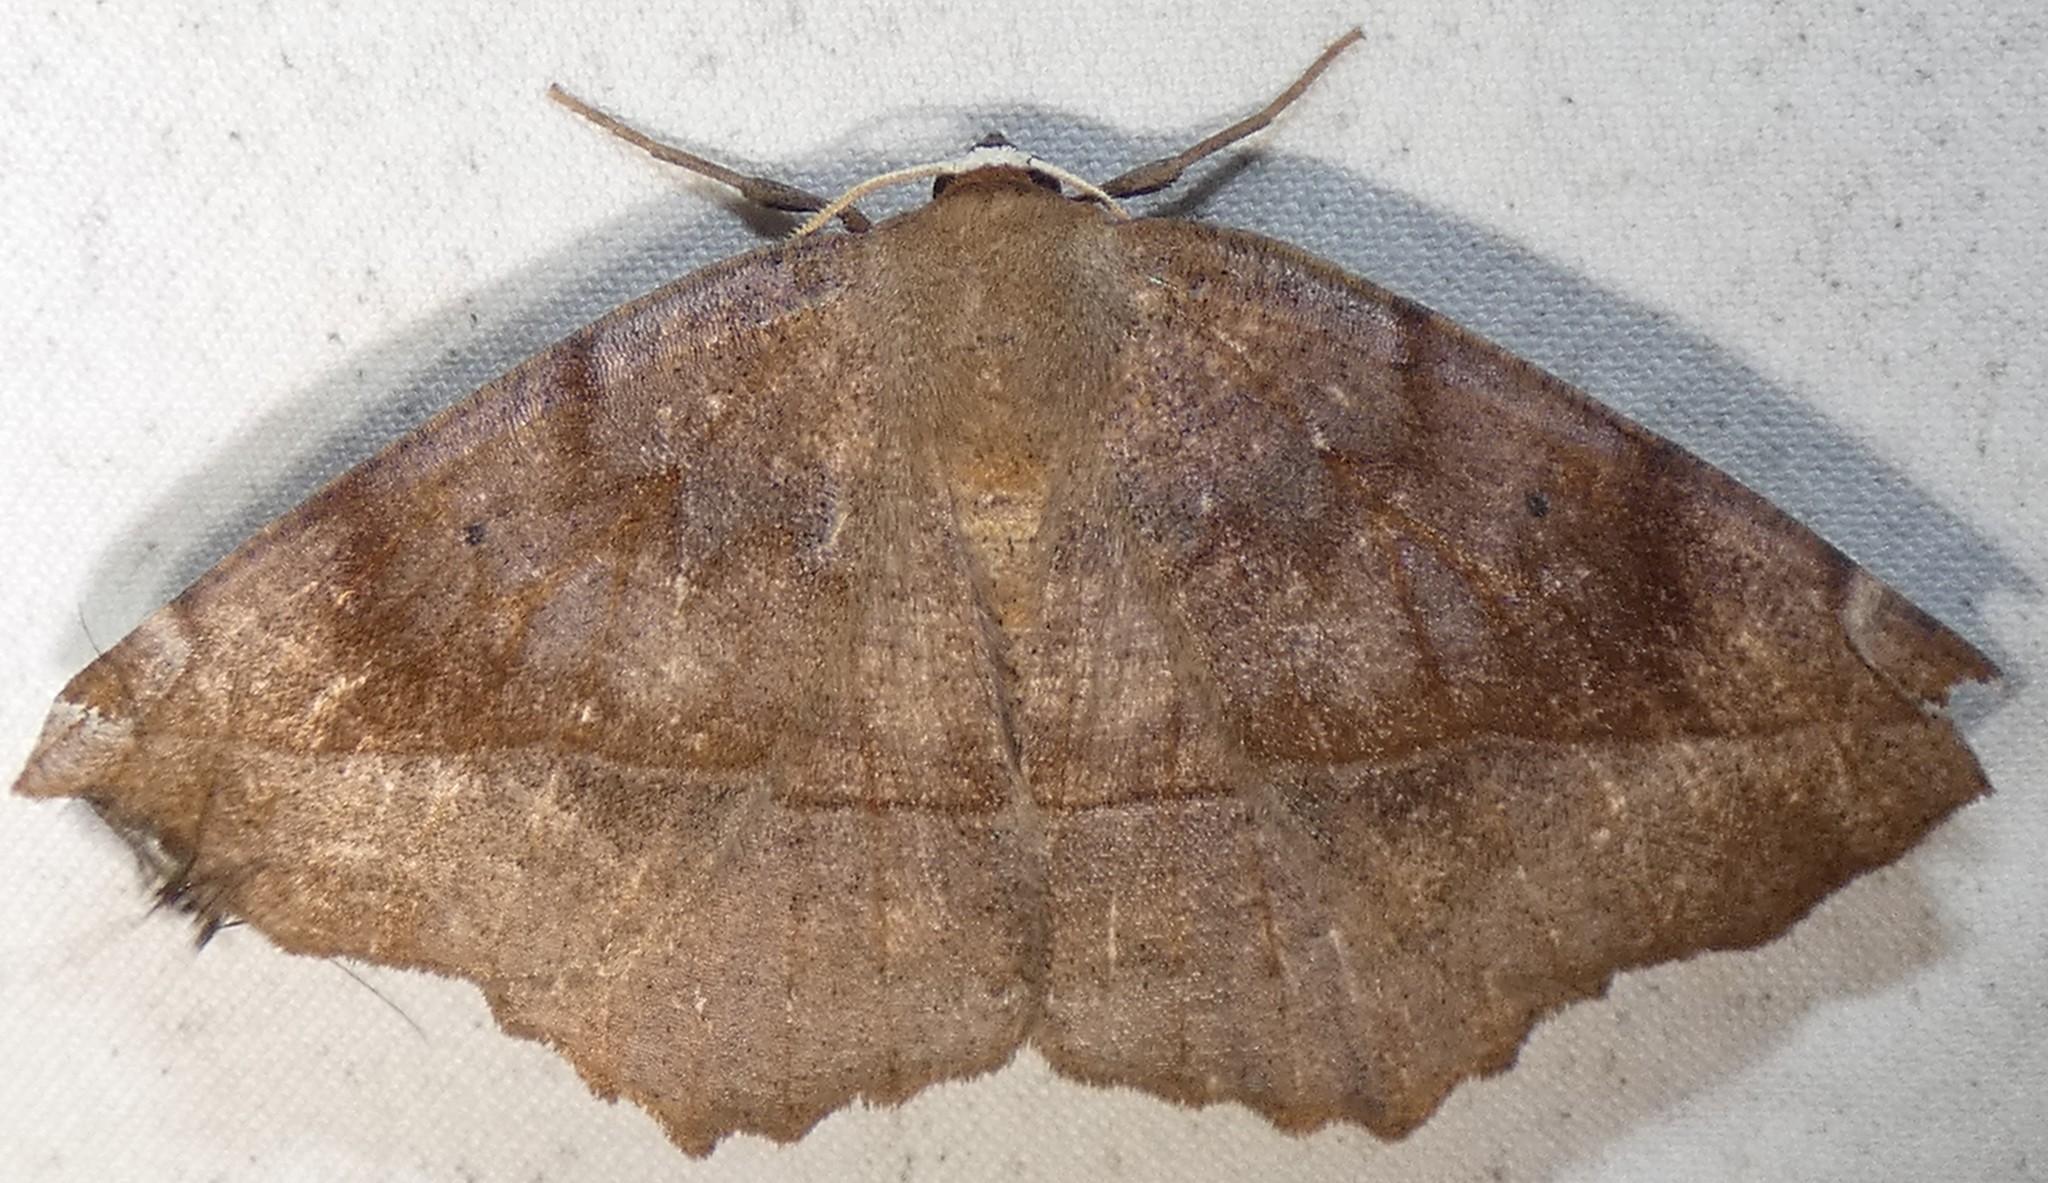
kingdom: Animalia
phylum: Arthropoda
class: Insecta
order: Lepidoptera
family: Geometridae
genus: Eutrapela
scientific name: Eutrapela clemataria
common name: Curved-toothed geometer
